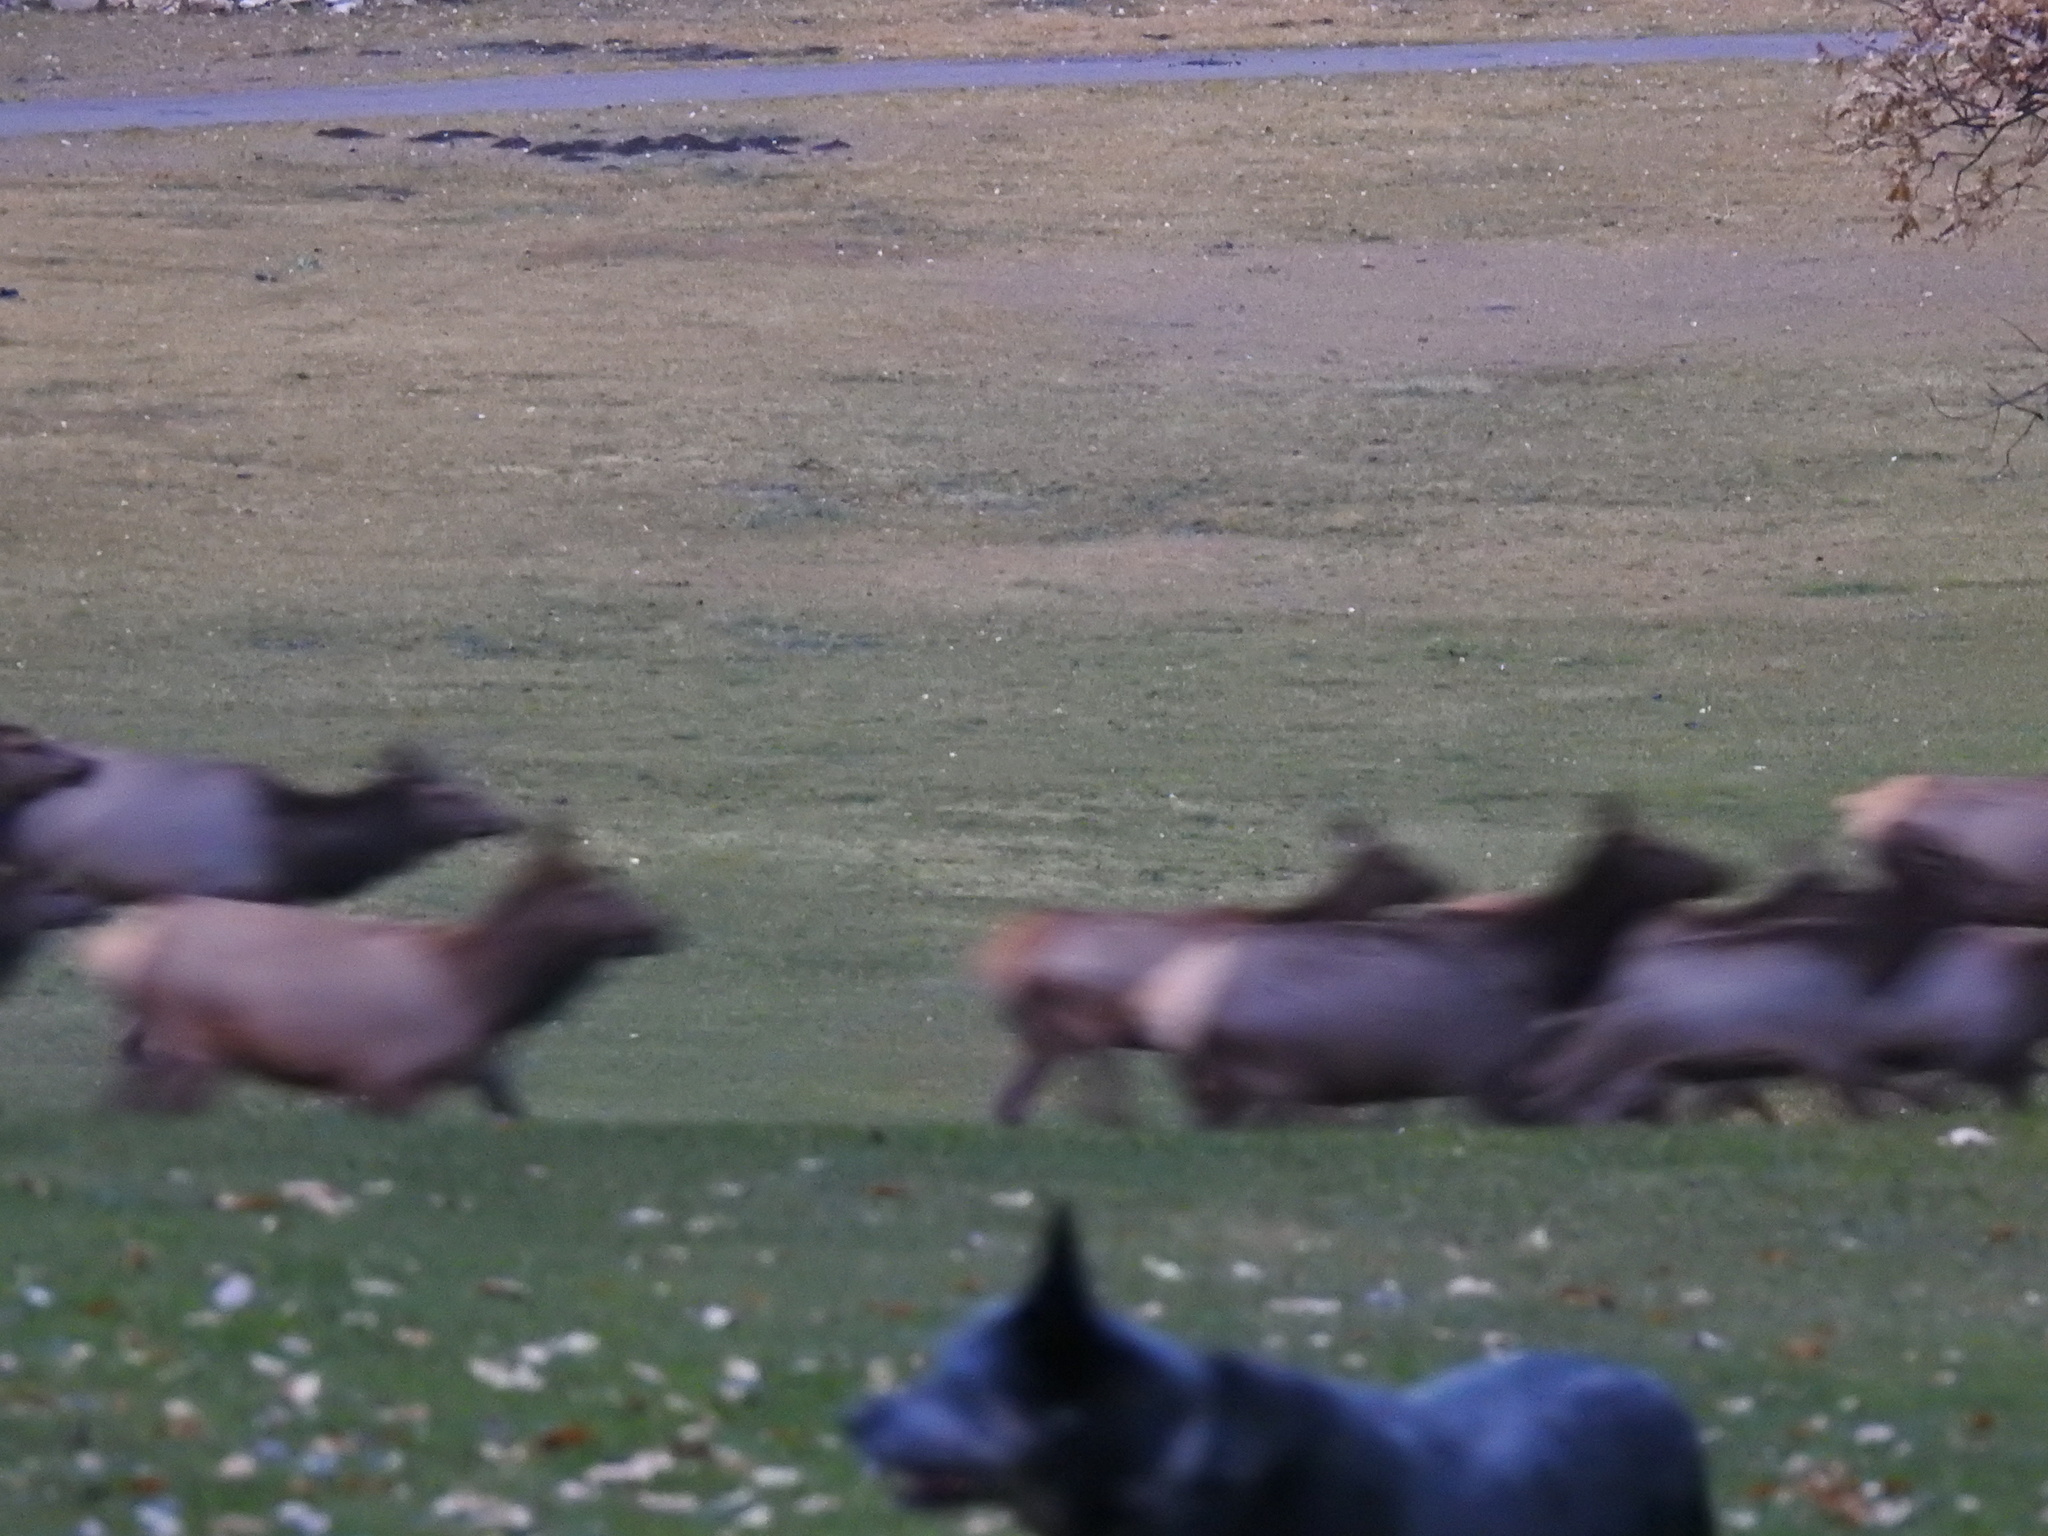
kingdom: Animalia
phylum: Chordata
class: Mammalia
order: Artiodactyla
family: Cervidae
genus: Cervus
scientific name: Cervus elaphus
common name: Red deer
